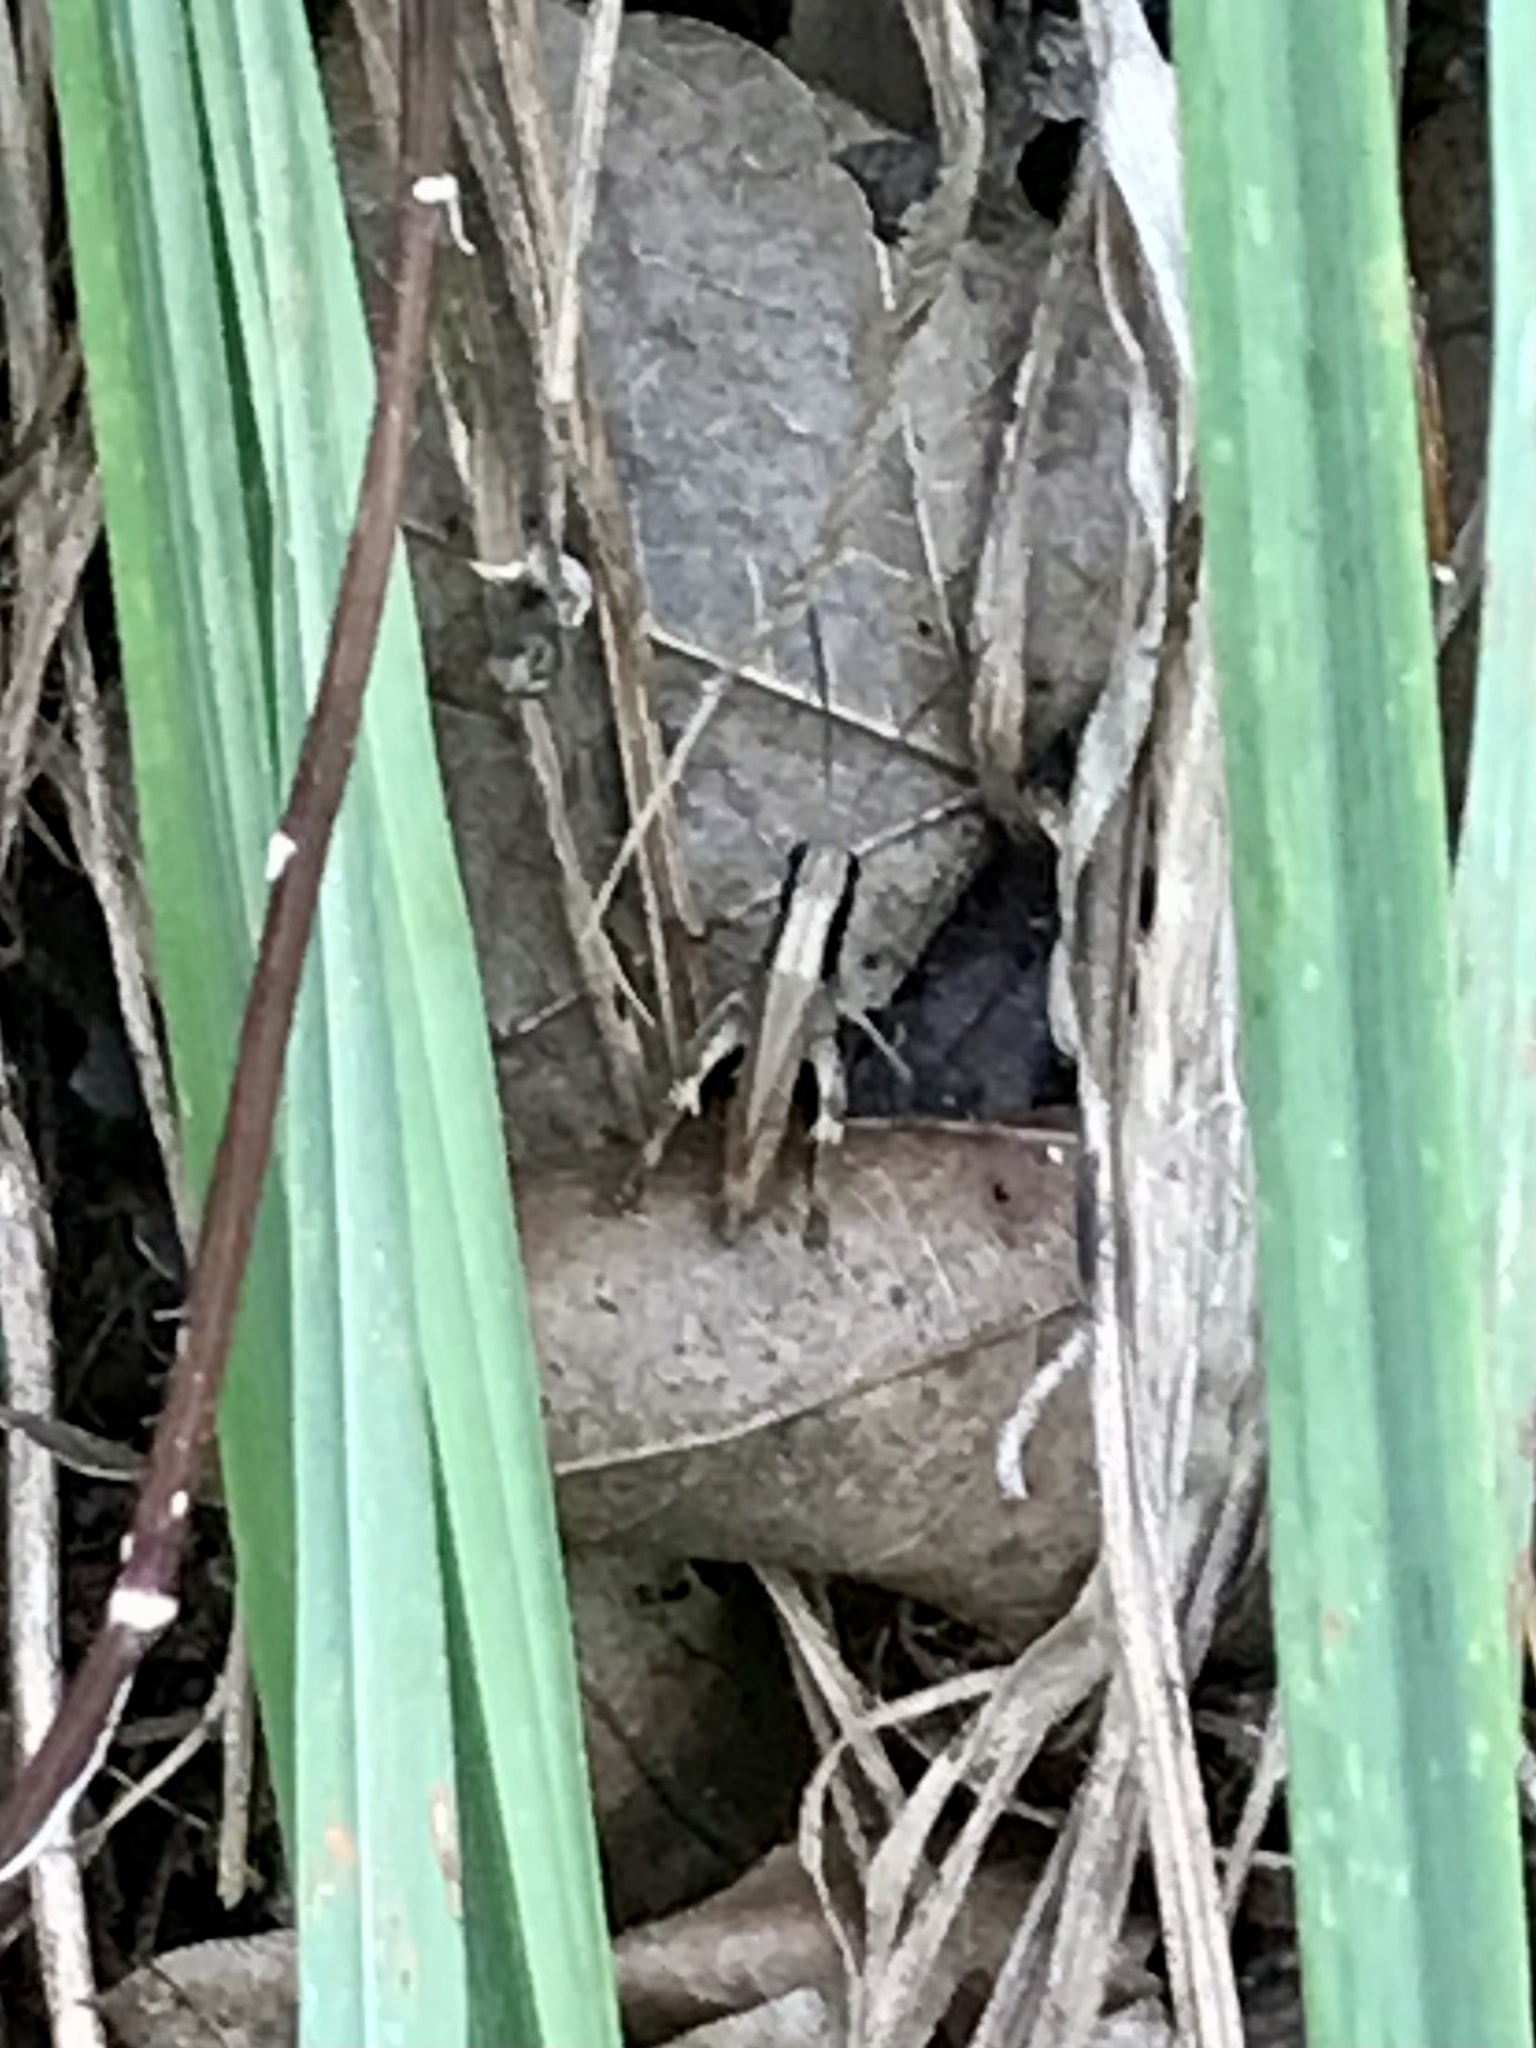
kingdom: Animalia
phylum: Arthropoda
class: Insecta
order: Orthoptera
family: Acrididae
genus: Chloealtis
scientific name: Chloealtis conspersa
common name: Sprinkled broad-winged grasshopper
